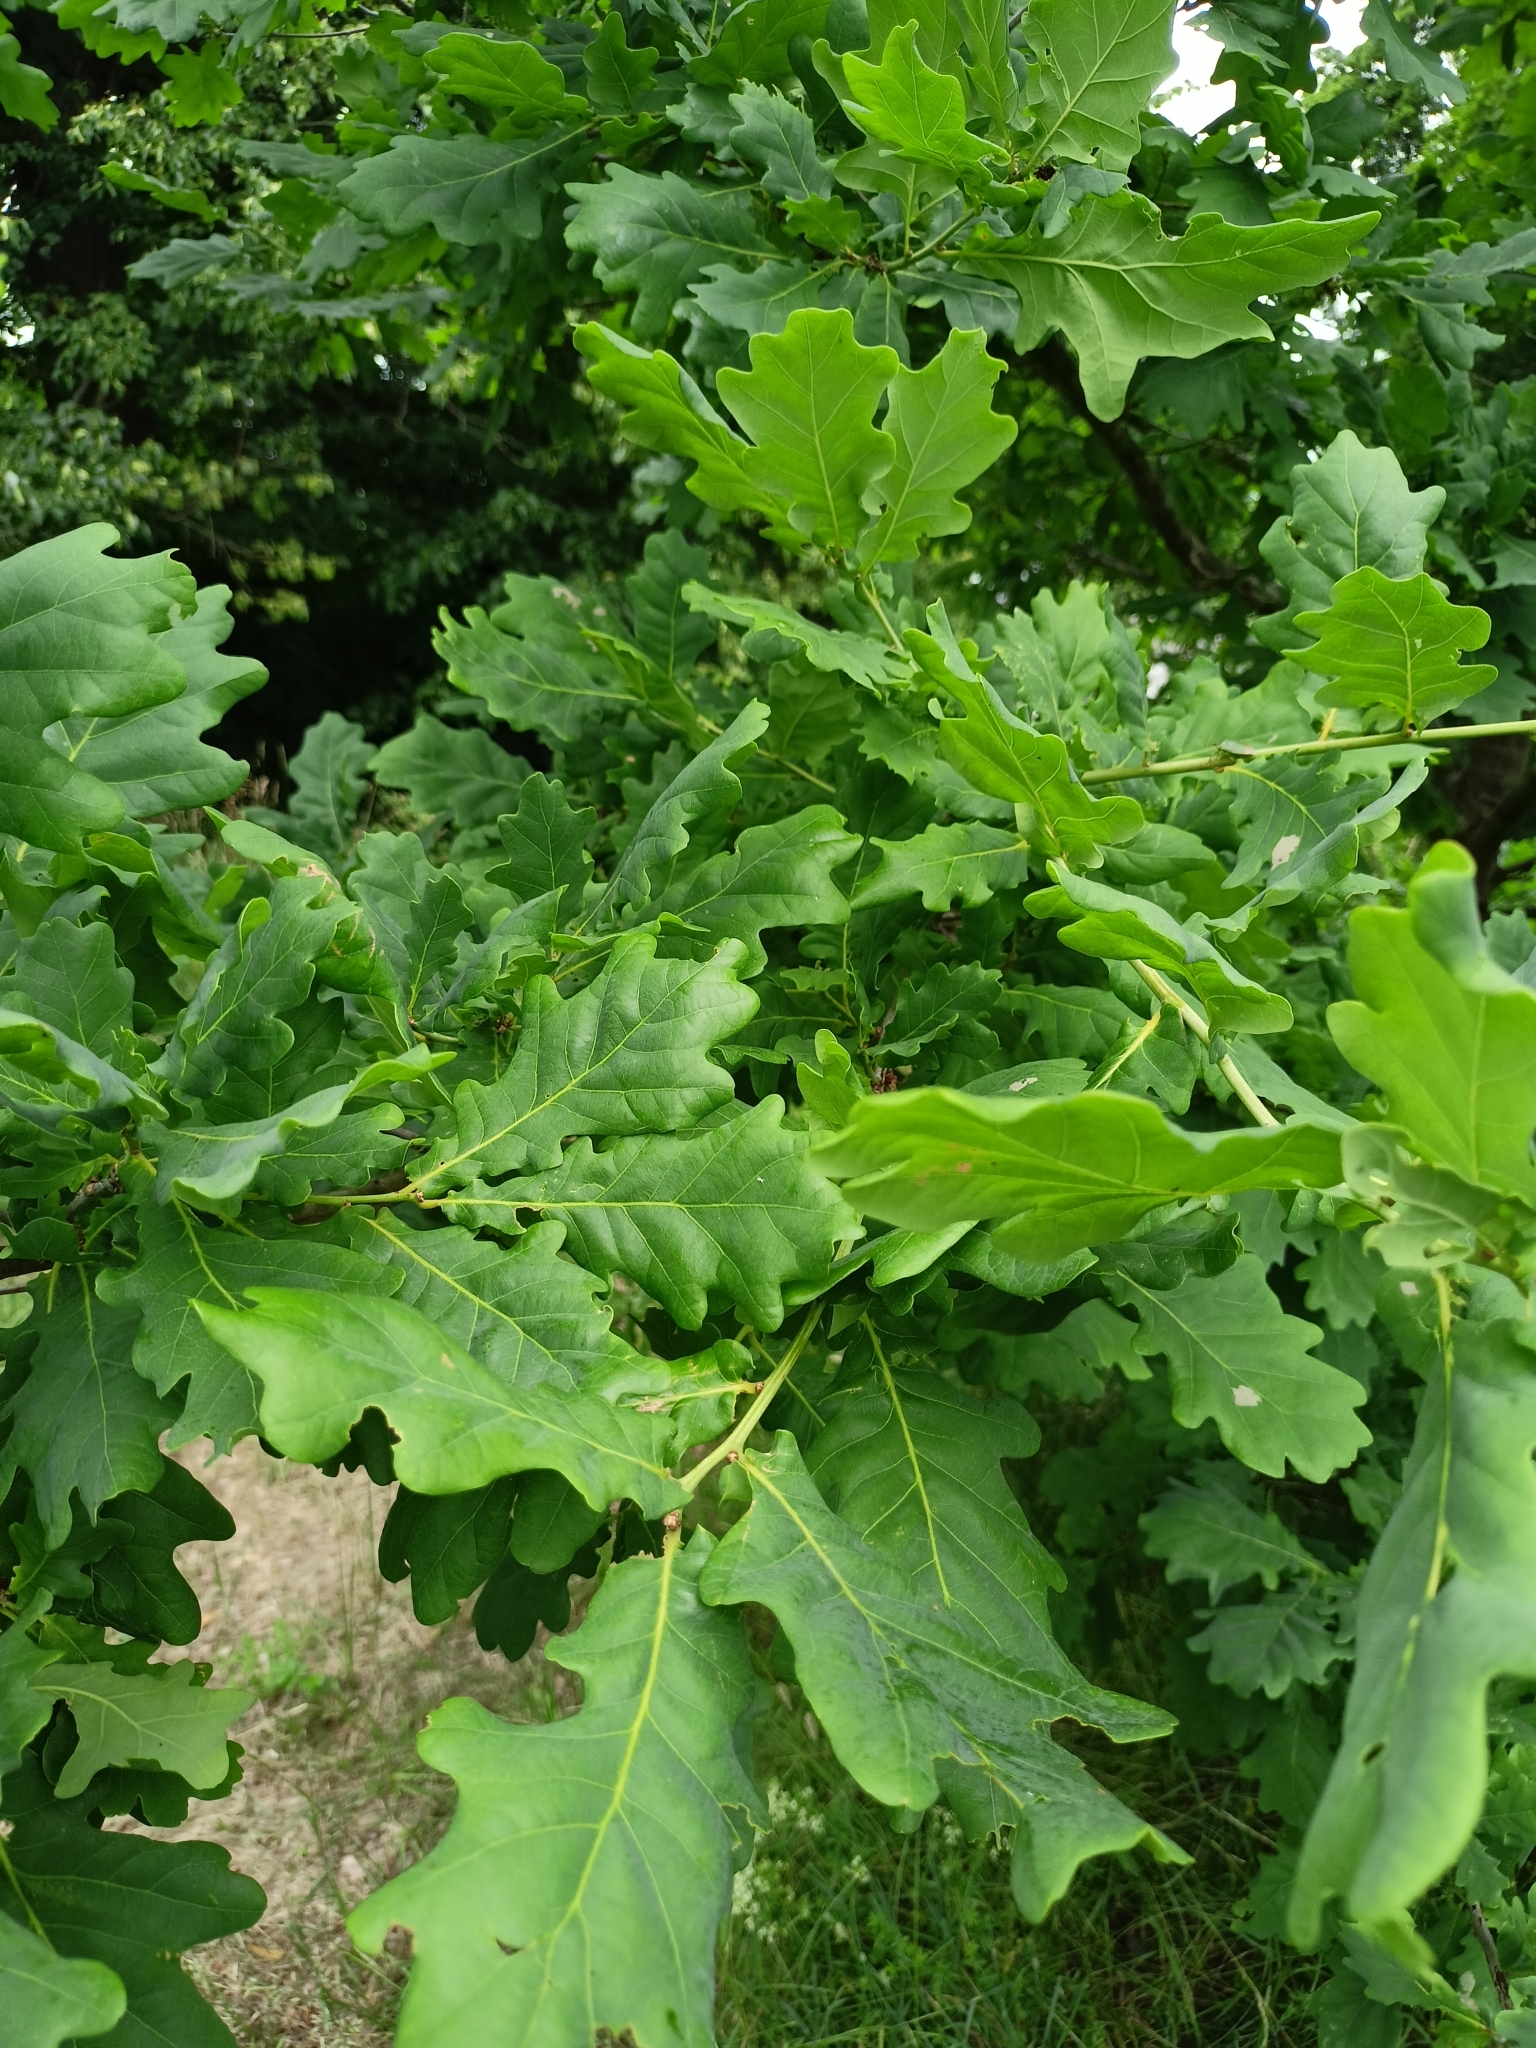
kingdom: Plantae
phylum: Tracheophyta
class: Magnoliopsida
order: Fagales
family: Fagaceae
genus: Quercus
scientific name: Quercus robur
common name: Pedunculate oak
